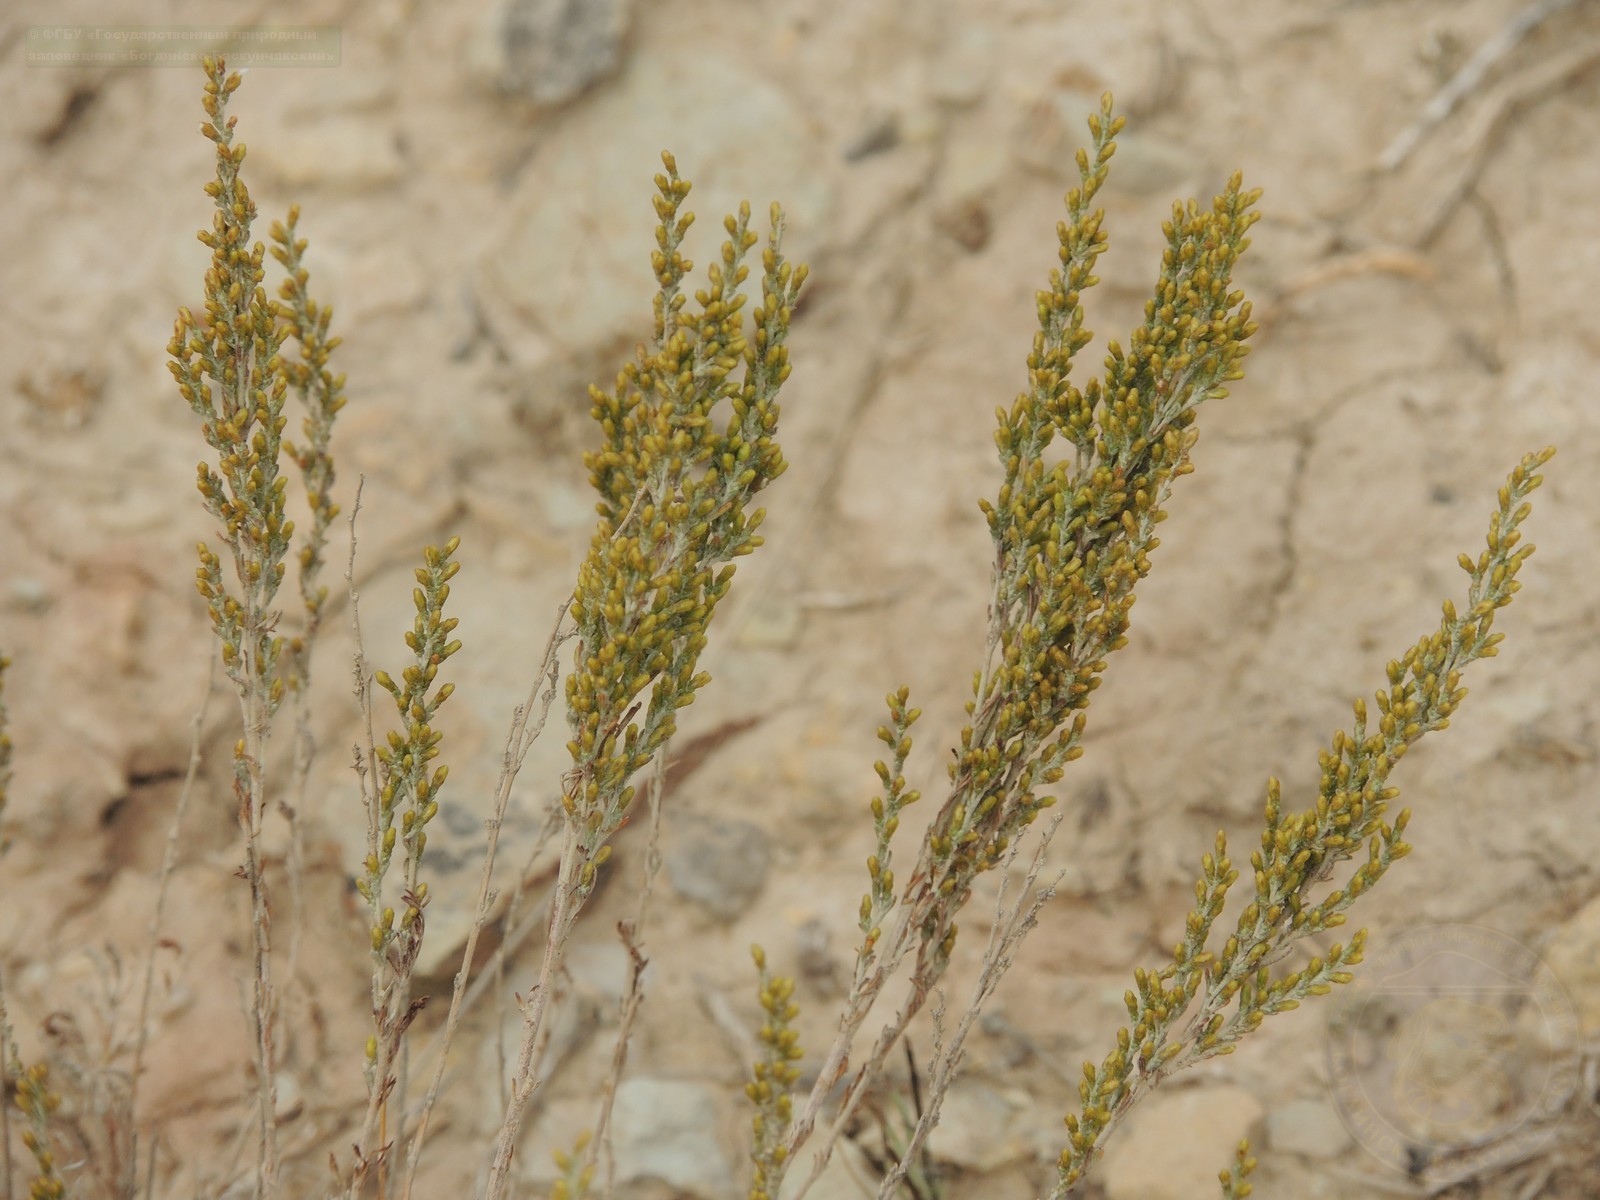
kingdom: Plantae
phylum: Tracheophyta
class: Magnoliopsida
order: Asterales
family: Asteraceae
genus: Artemisia
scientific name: Artemisia pauciflora
